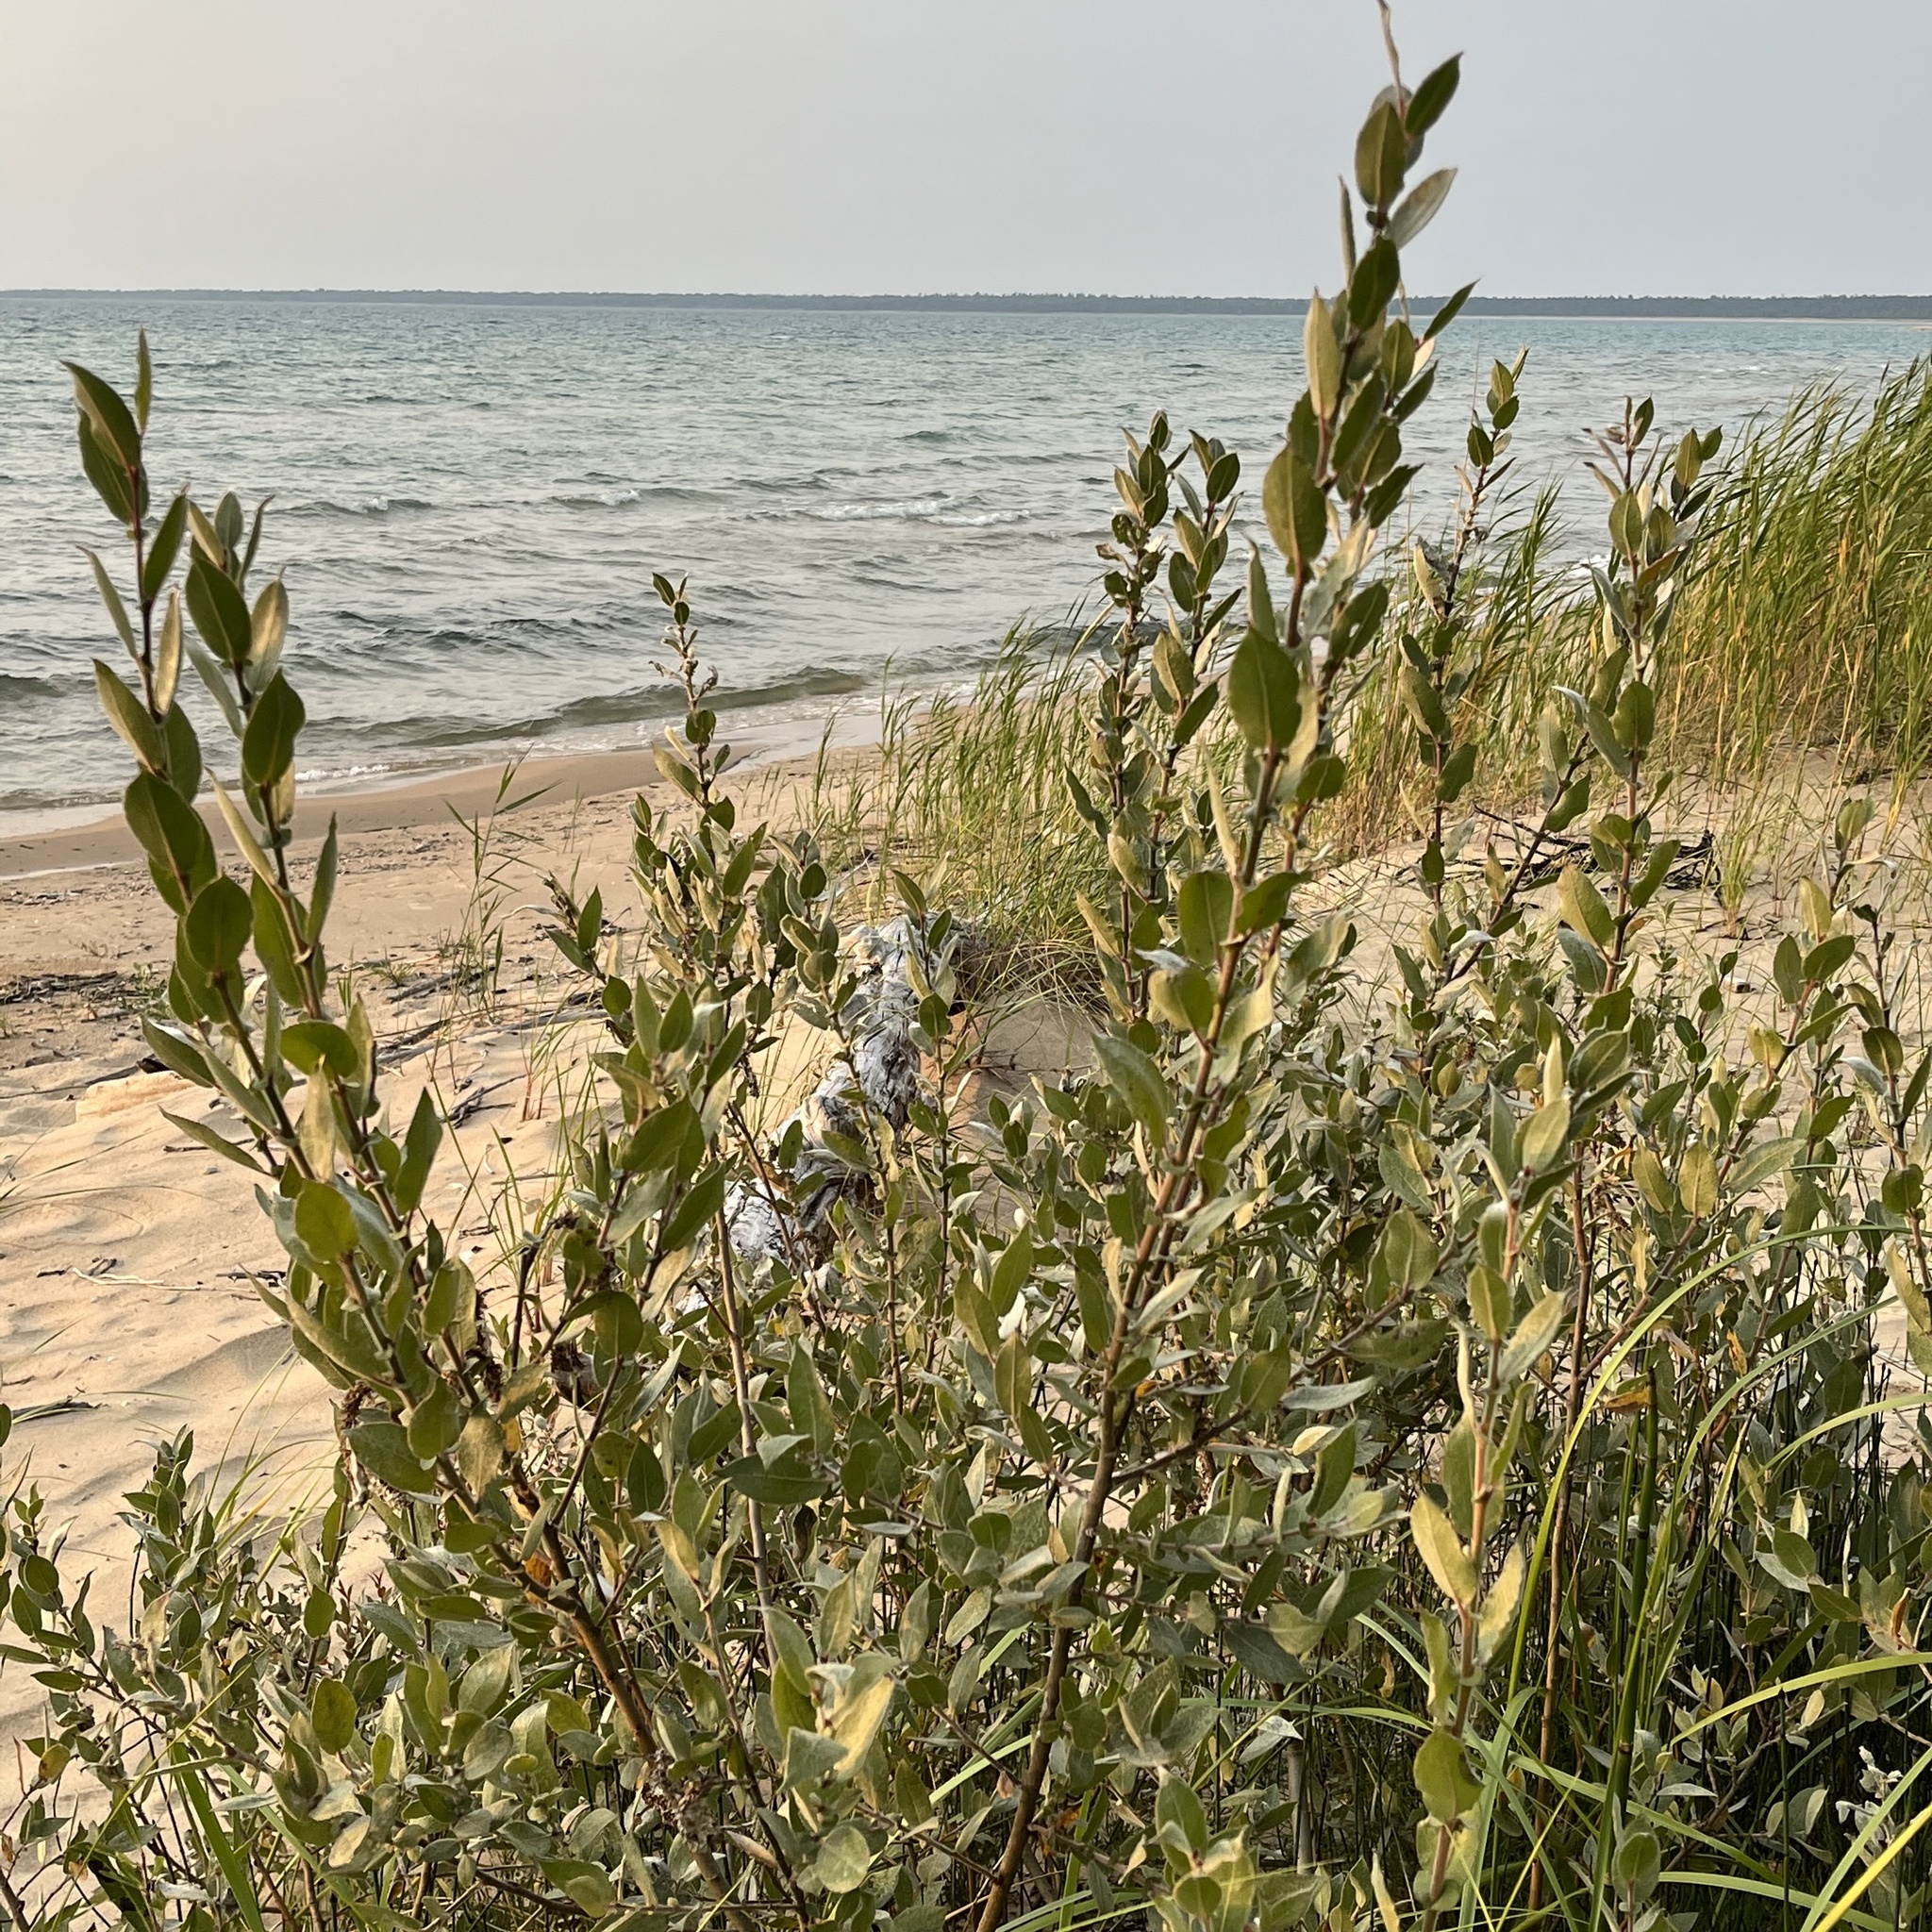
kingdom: Plantae
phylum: Tracheophyta
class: Magnoliopsida
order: Malpighiales
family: Salicaceae
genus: Salix
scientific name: Salix cordata
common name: Heart-leaf willow
